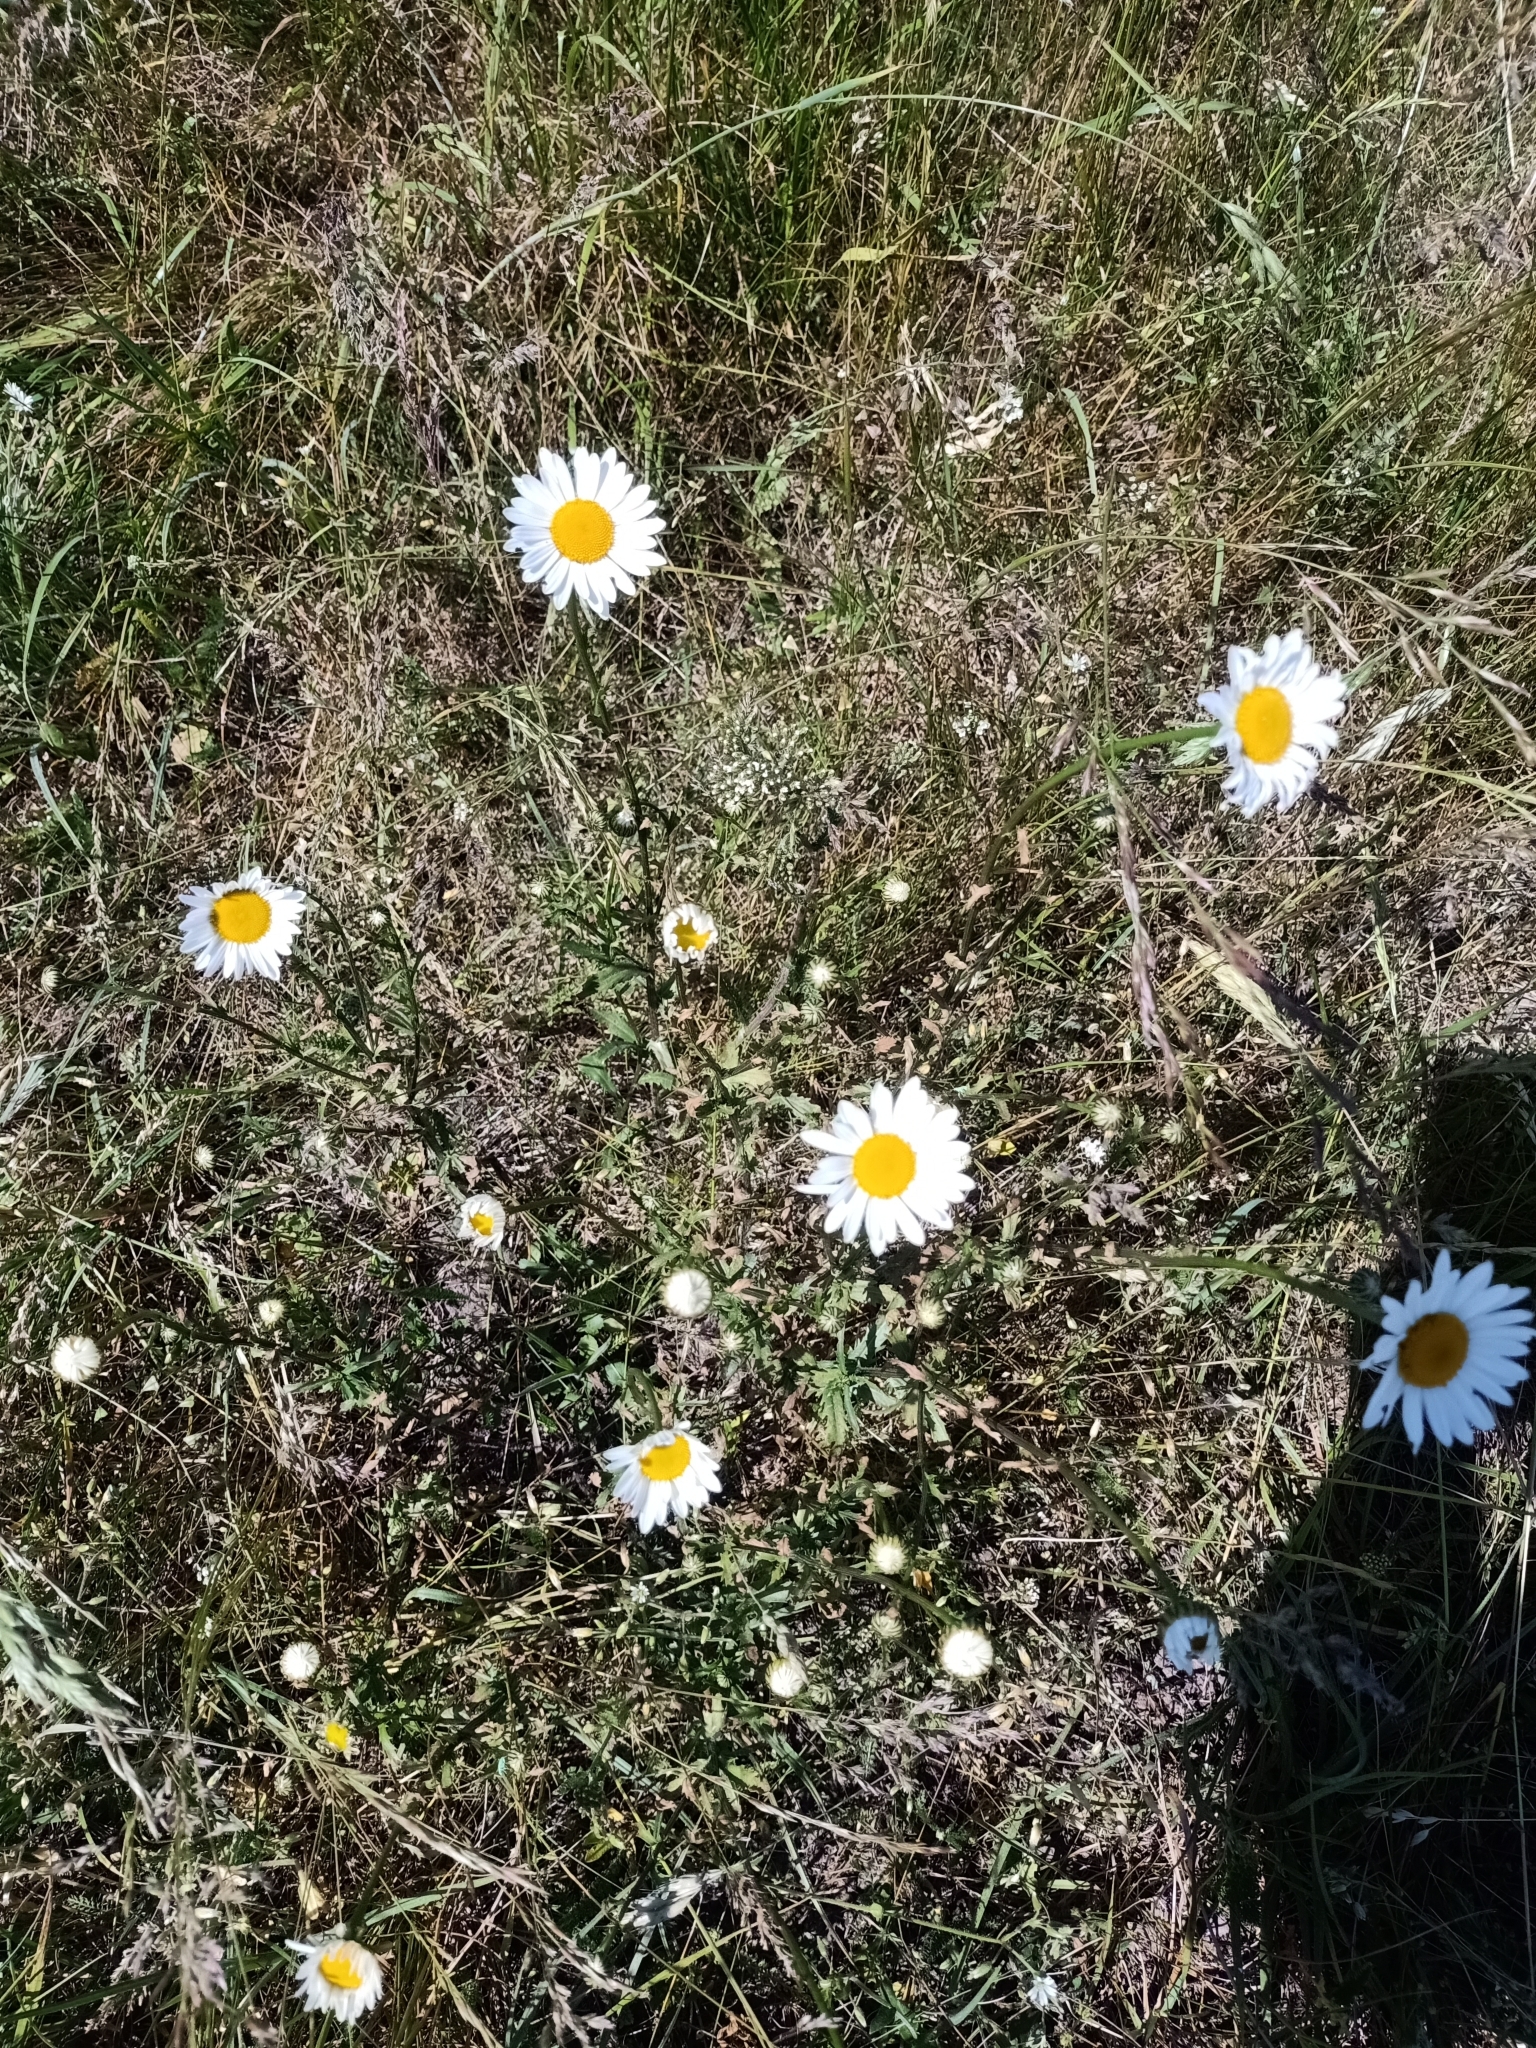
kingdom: Plantae
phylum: Tracheophyta
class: Magnoliopsida
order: Asterales
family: Asteraceae
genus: Leucanthemum
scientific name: Leucanthemum vulgare
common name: Oxeye daisy
